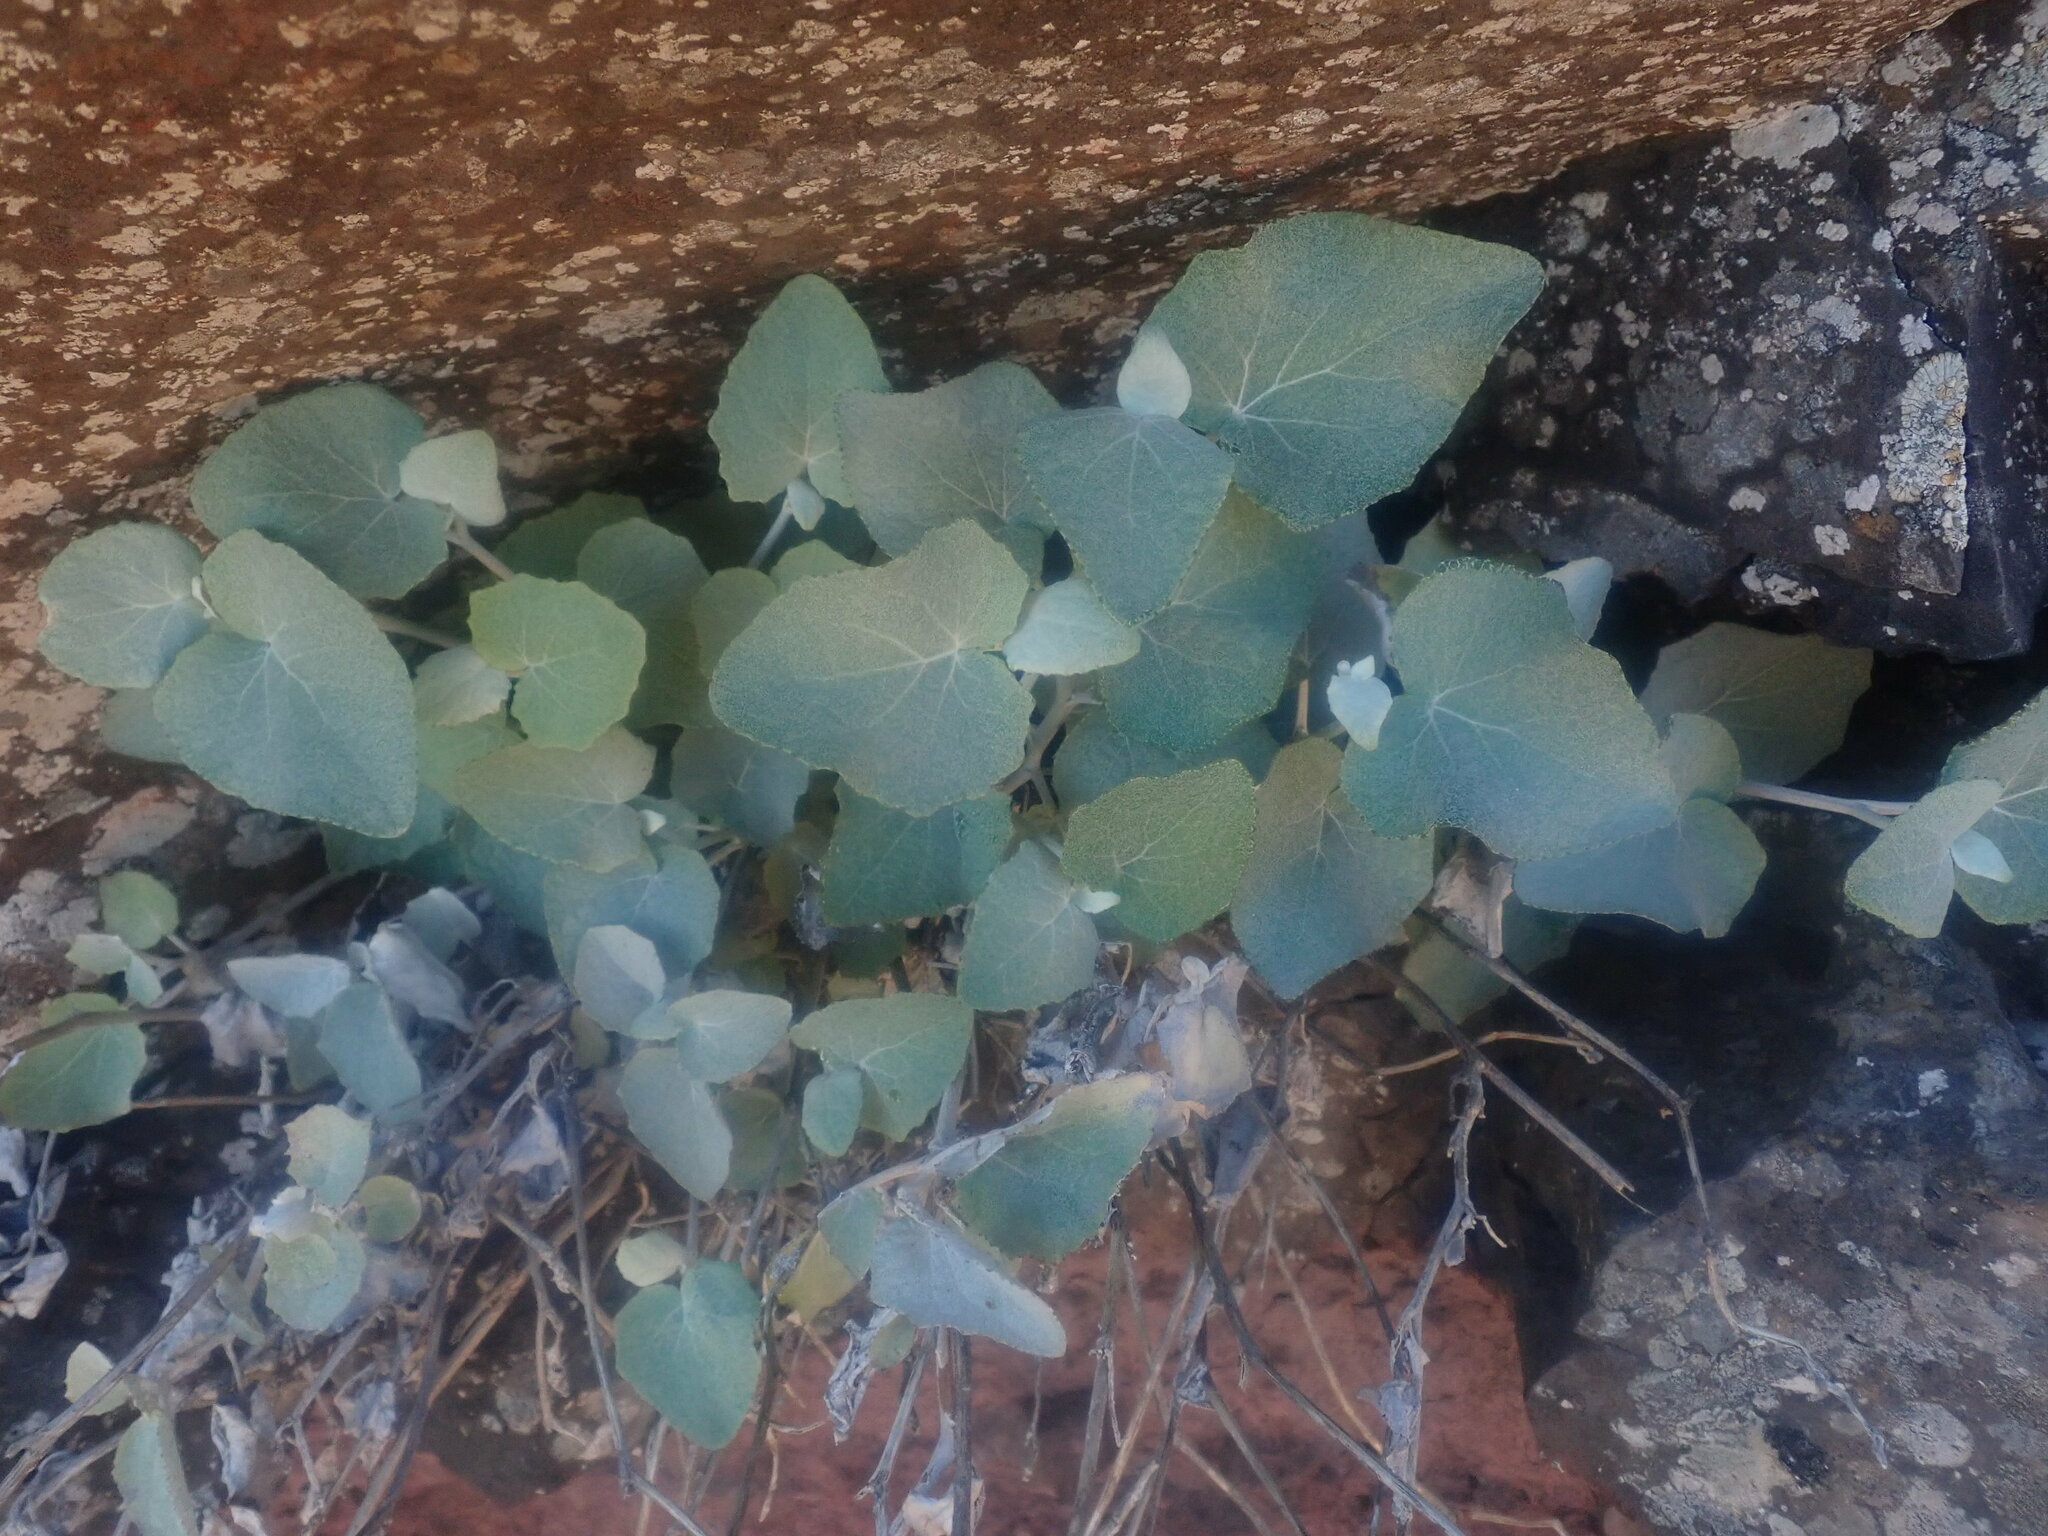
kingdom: Plantae
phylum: Tracheophyta
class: Magnoliopsida
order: Asterales
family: Asteraceae
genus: Pericallis
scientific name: Pericallis aurita
